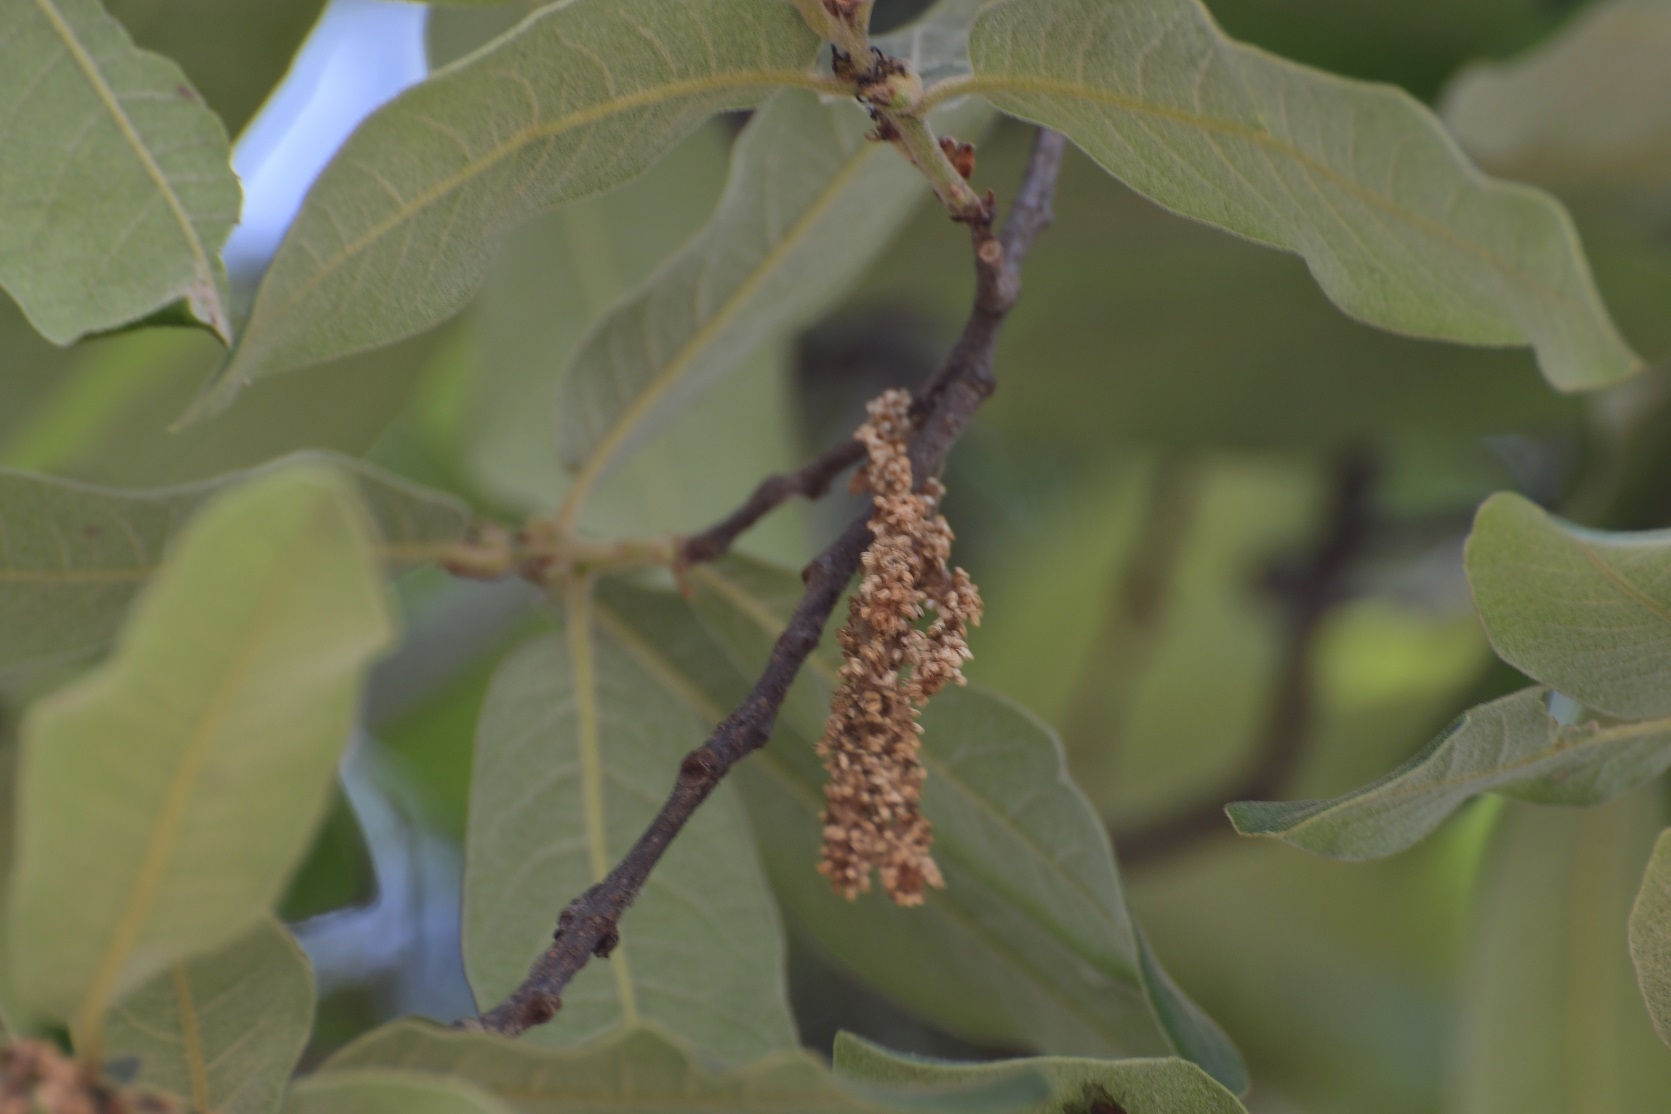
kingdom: Plantae
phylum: Tracheophyta
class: Magnoliopsida
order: Fagales
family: Fagaceae
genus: Quercus
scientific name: Quercus crispipilis
